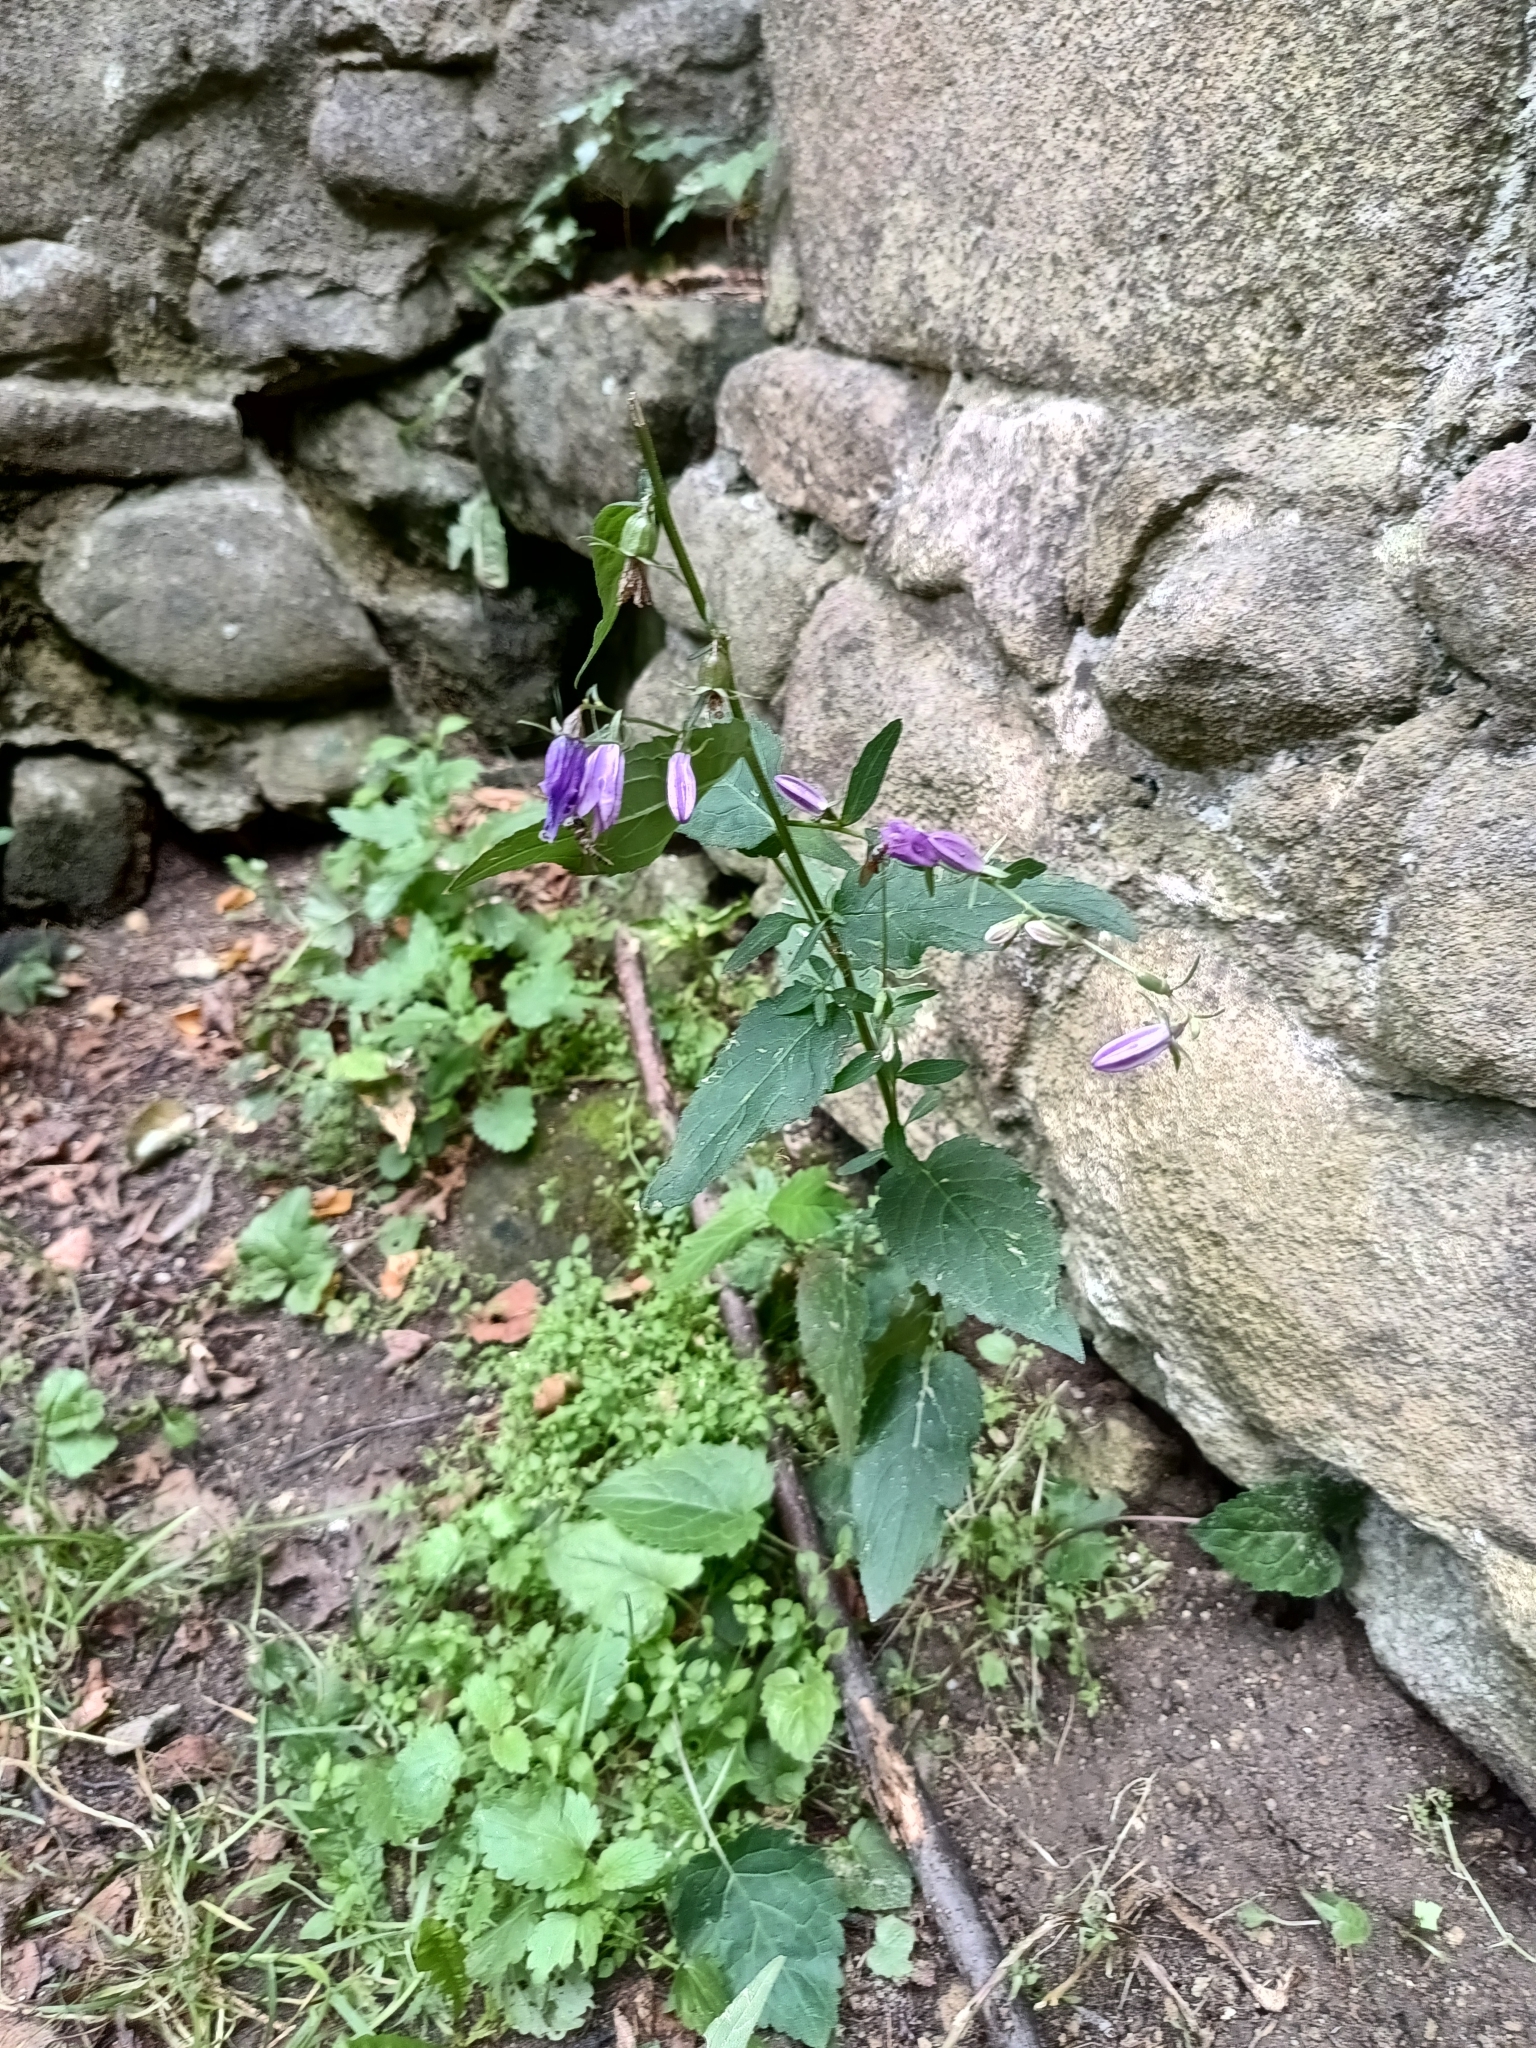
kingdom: Plantae
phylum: Tracheophyta
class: Magnoliopsida
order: Asterales
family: Campanulaceae
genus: Campanula
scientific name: Campanula rapunculoides
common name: Creeping bellflower
